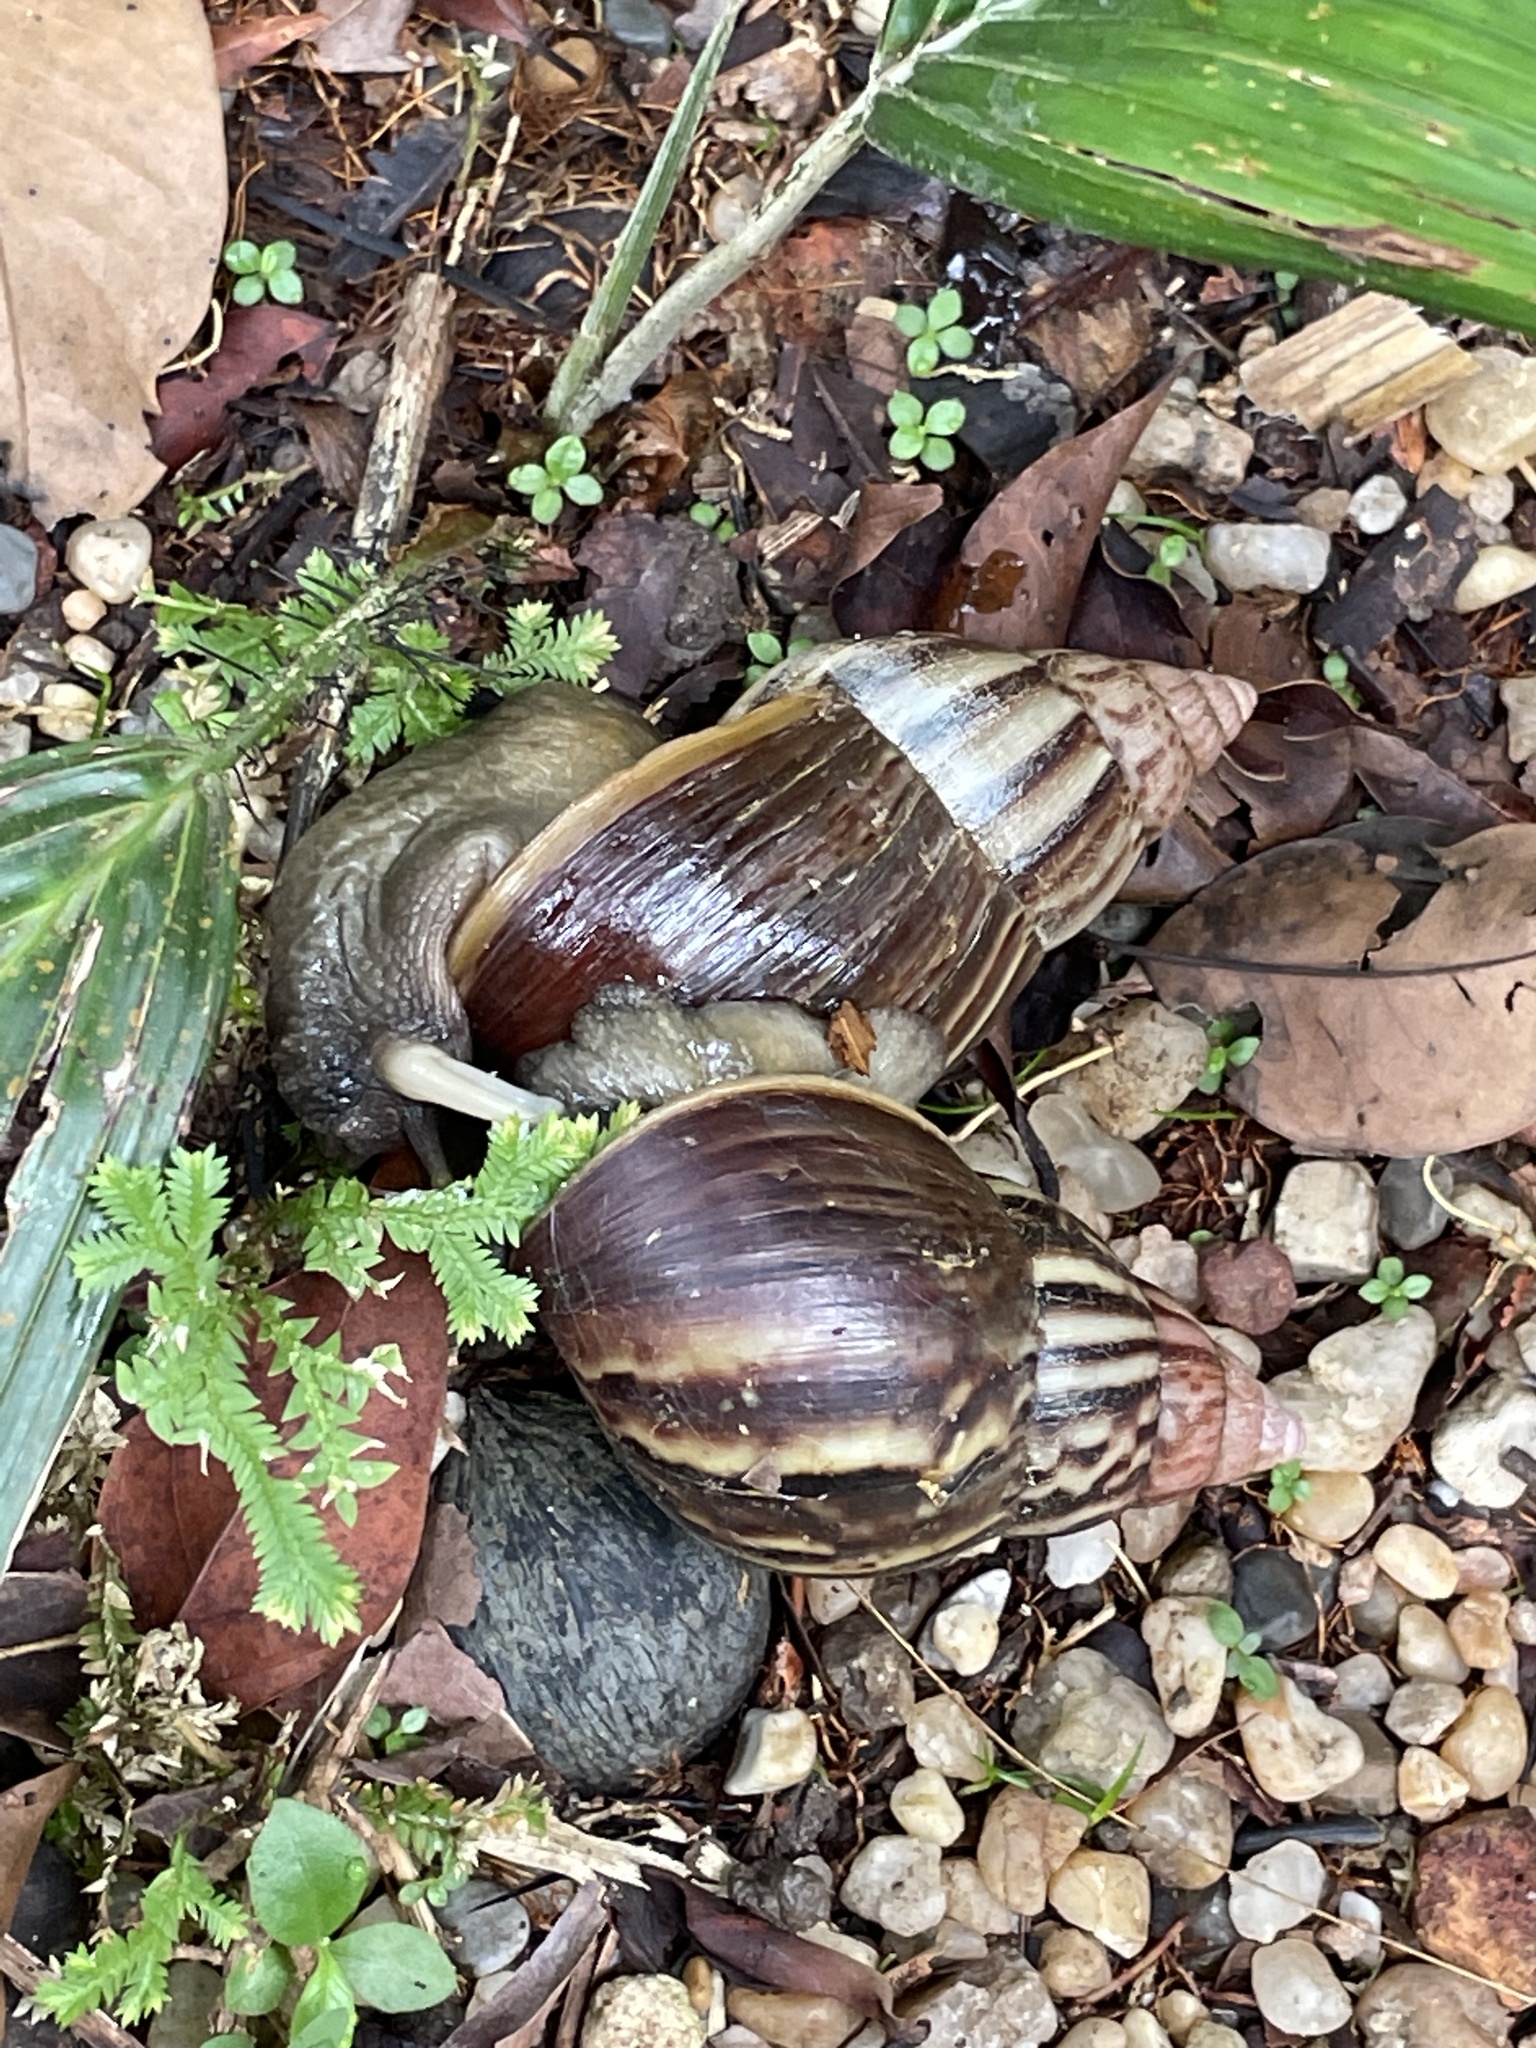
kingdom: Animalia
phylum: Mollusca
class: Gastropoda
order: Stylommatophora
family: Achatinidae
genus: Lissachatina
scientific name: Lissachatina fulica
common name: Giant african snail
